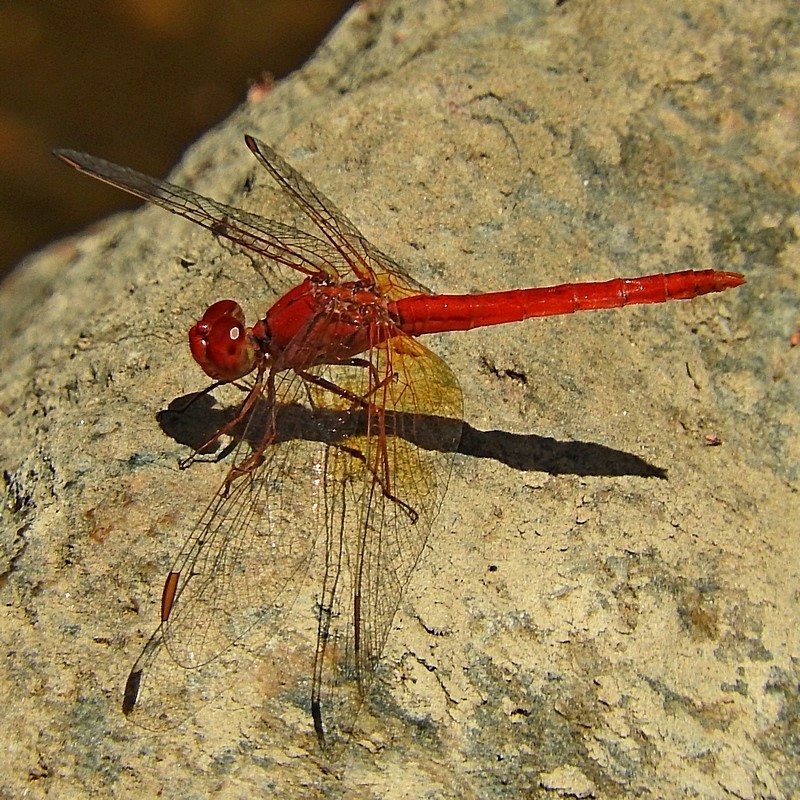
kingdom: Animalia
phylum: Arthropoda
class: Insecta
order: Odonata
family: Libellulidae
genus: Diplacodes
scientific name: Diplacodes haematodes
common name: Scarlet percher
